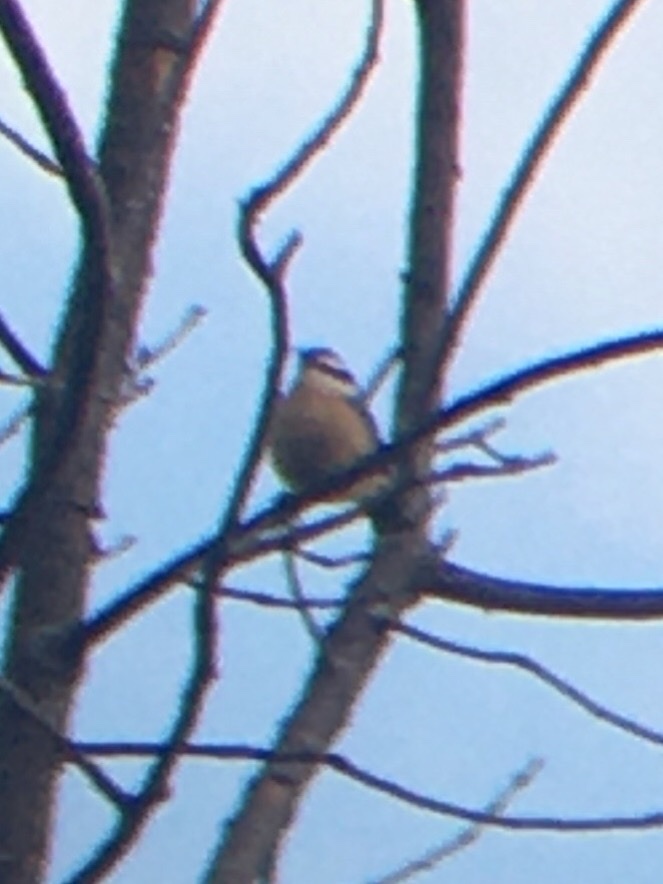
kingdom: Animalia
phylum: Chordata
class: Aves
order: Passeriformes
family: Sittidae
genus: Sitta
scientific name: Sitta canadensis
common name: Red-breasted nuthatch
